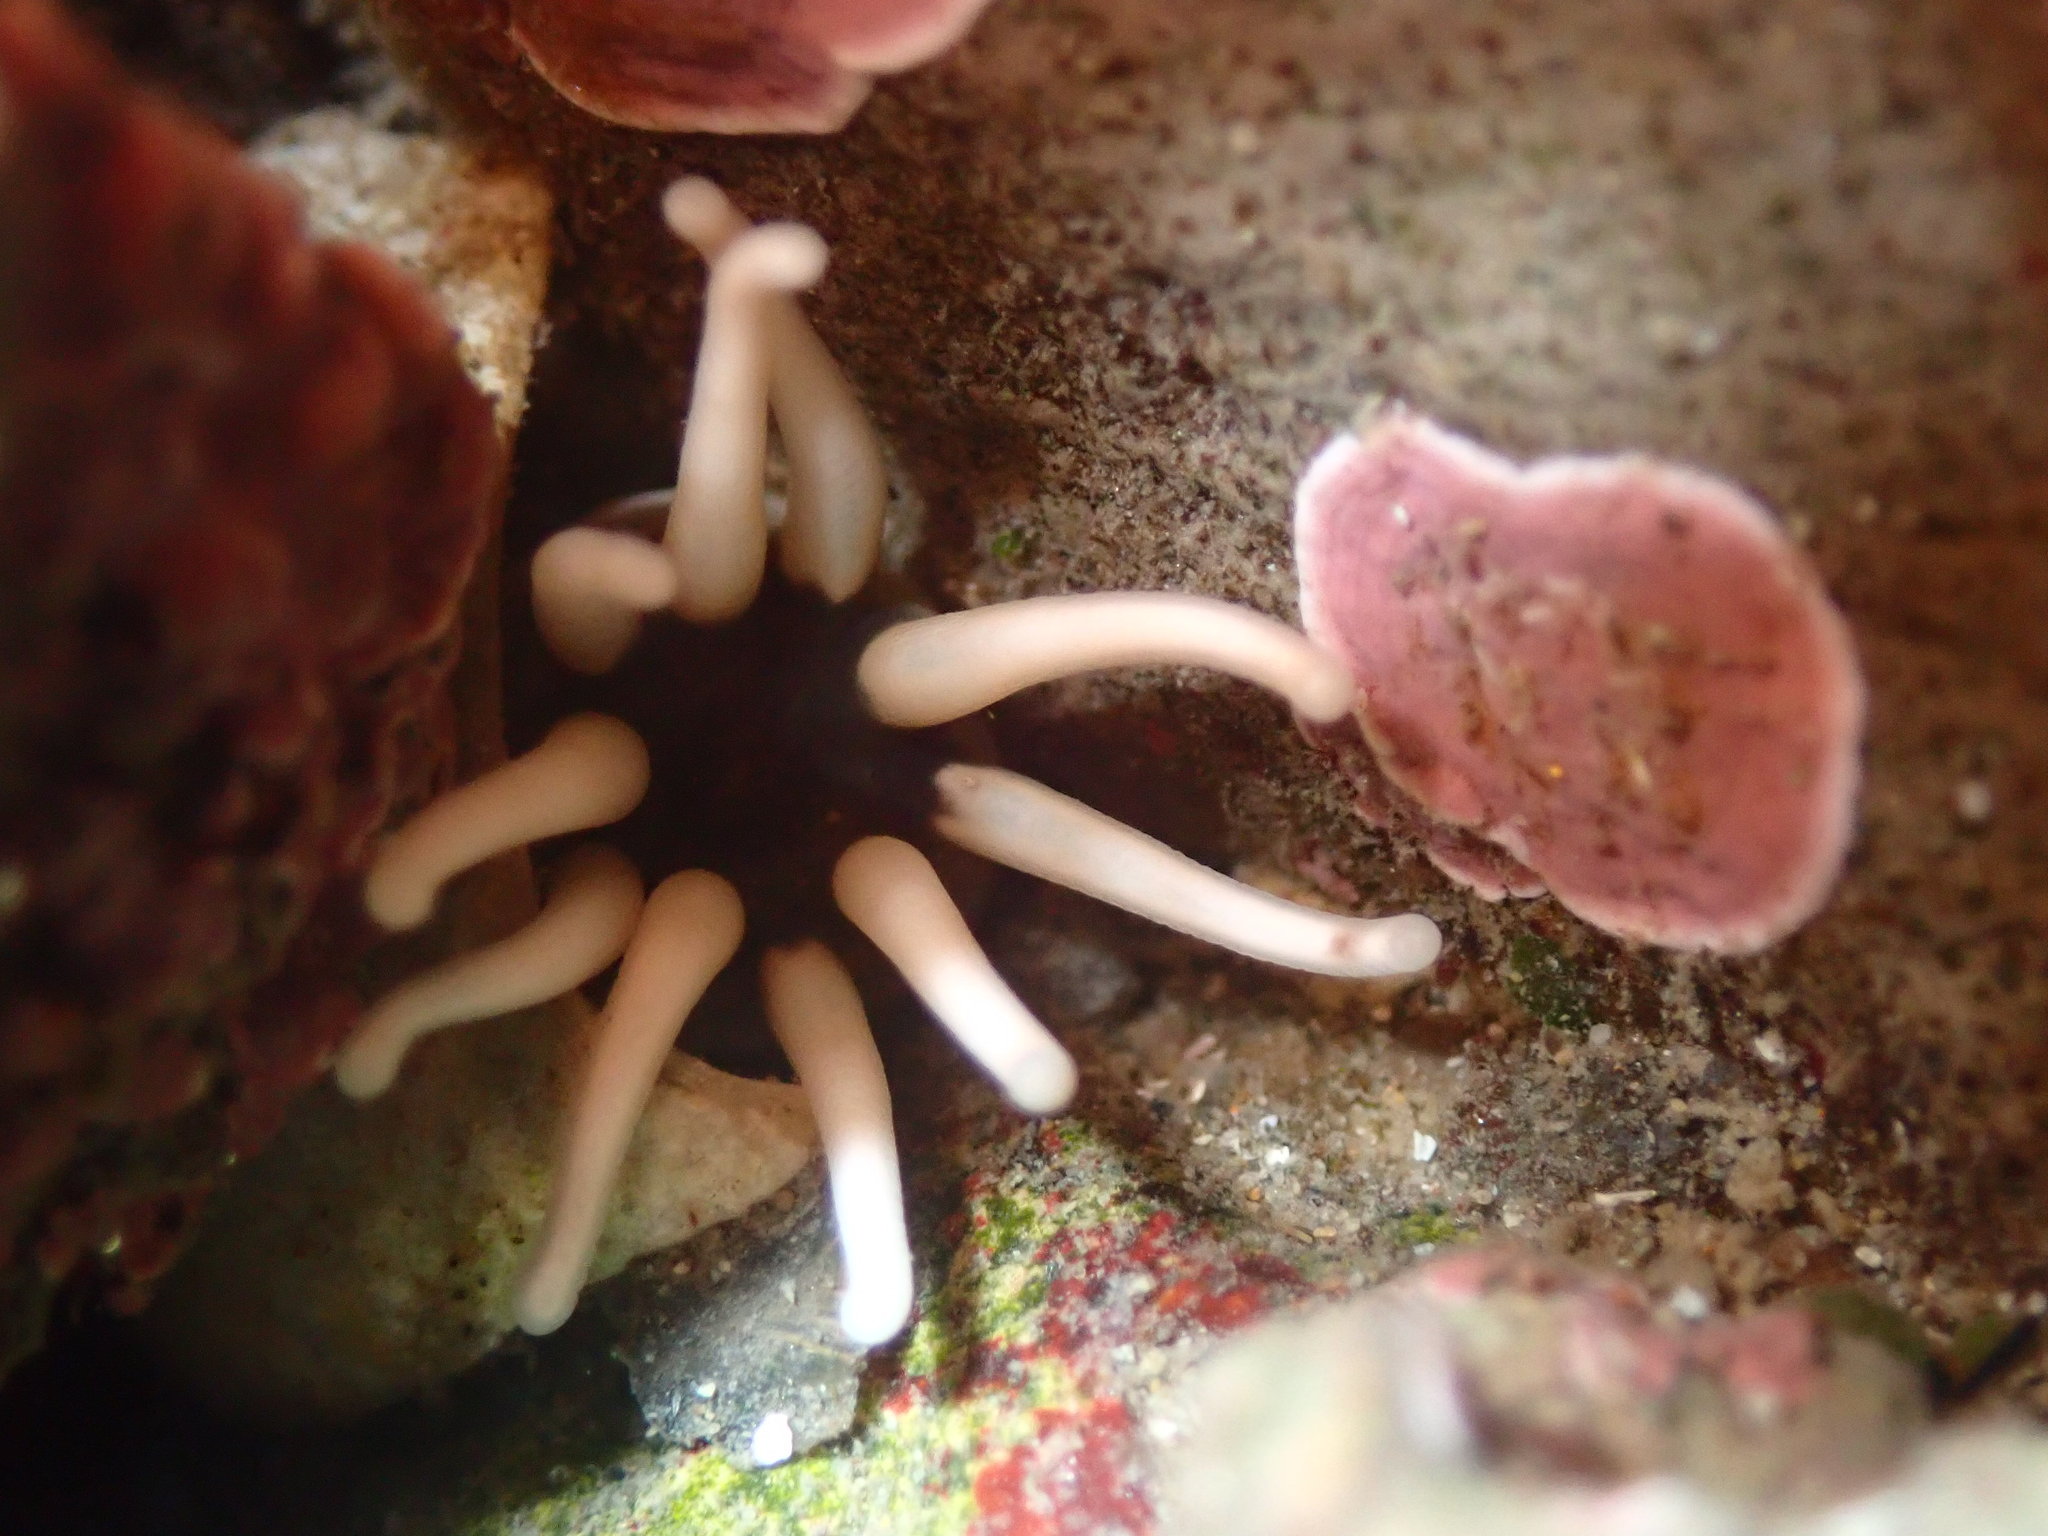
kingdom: Animalia
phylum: Cnidaria
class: Anthozoa
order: Actiniaria
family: Halcampidae
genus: Halcampa
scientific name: Halcampa decemtentaculata
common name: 10-tentacle burrowing anemone
